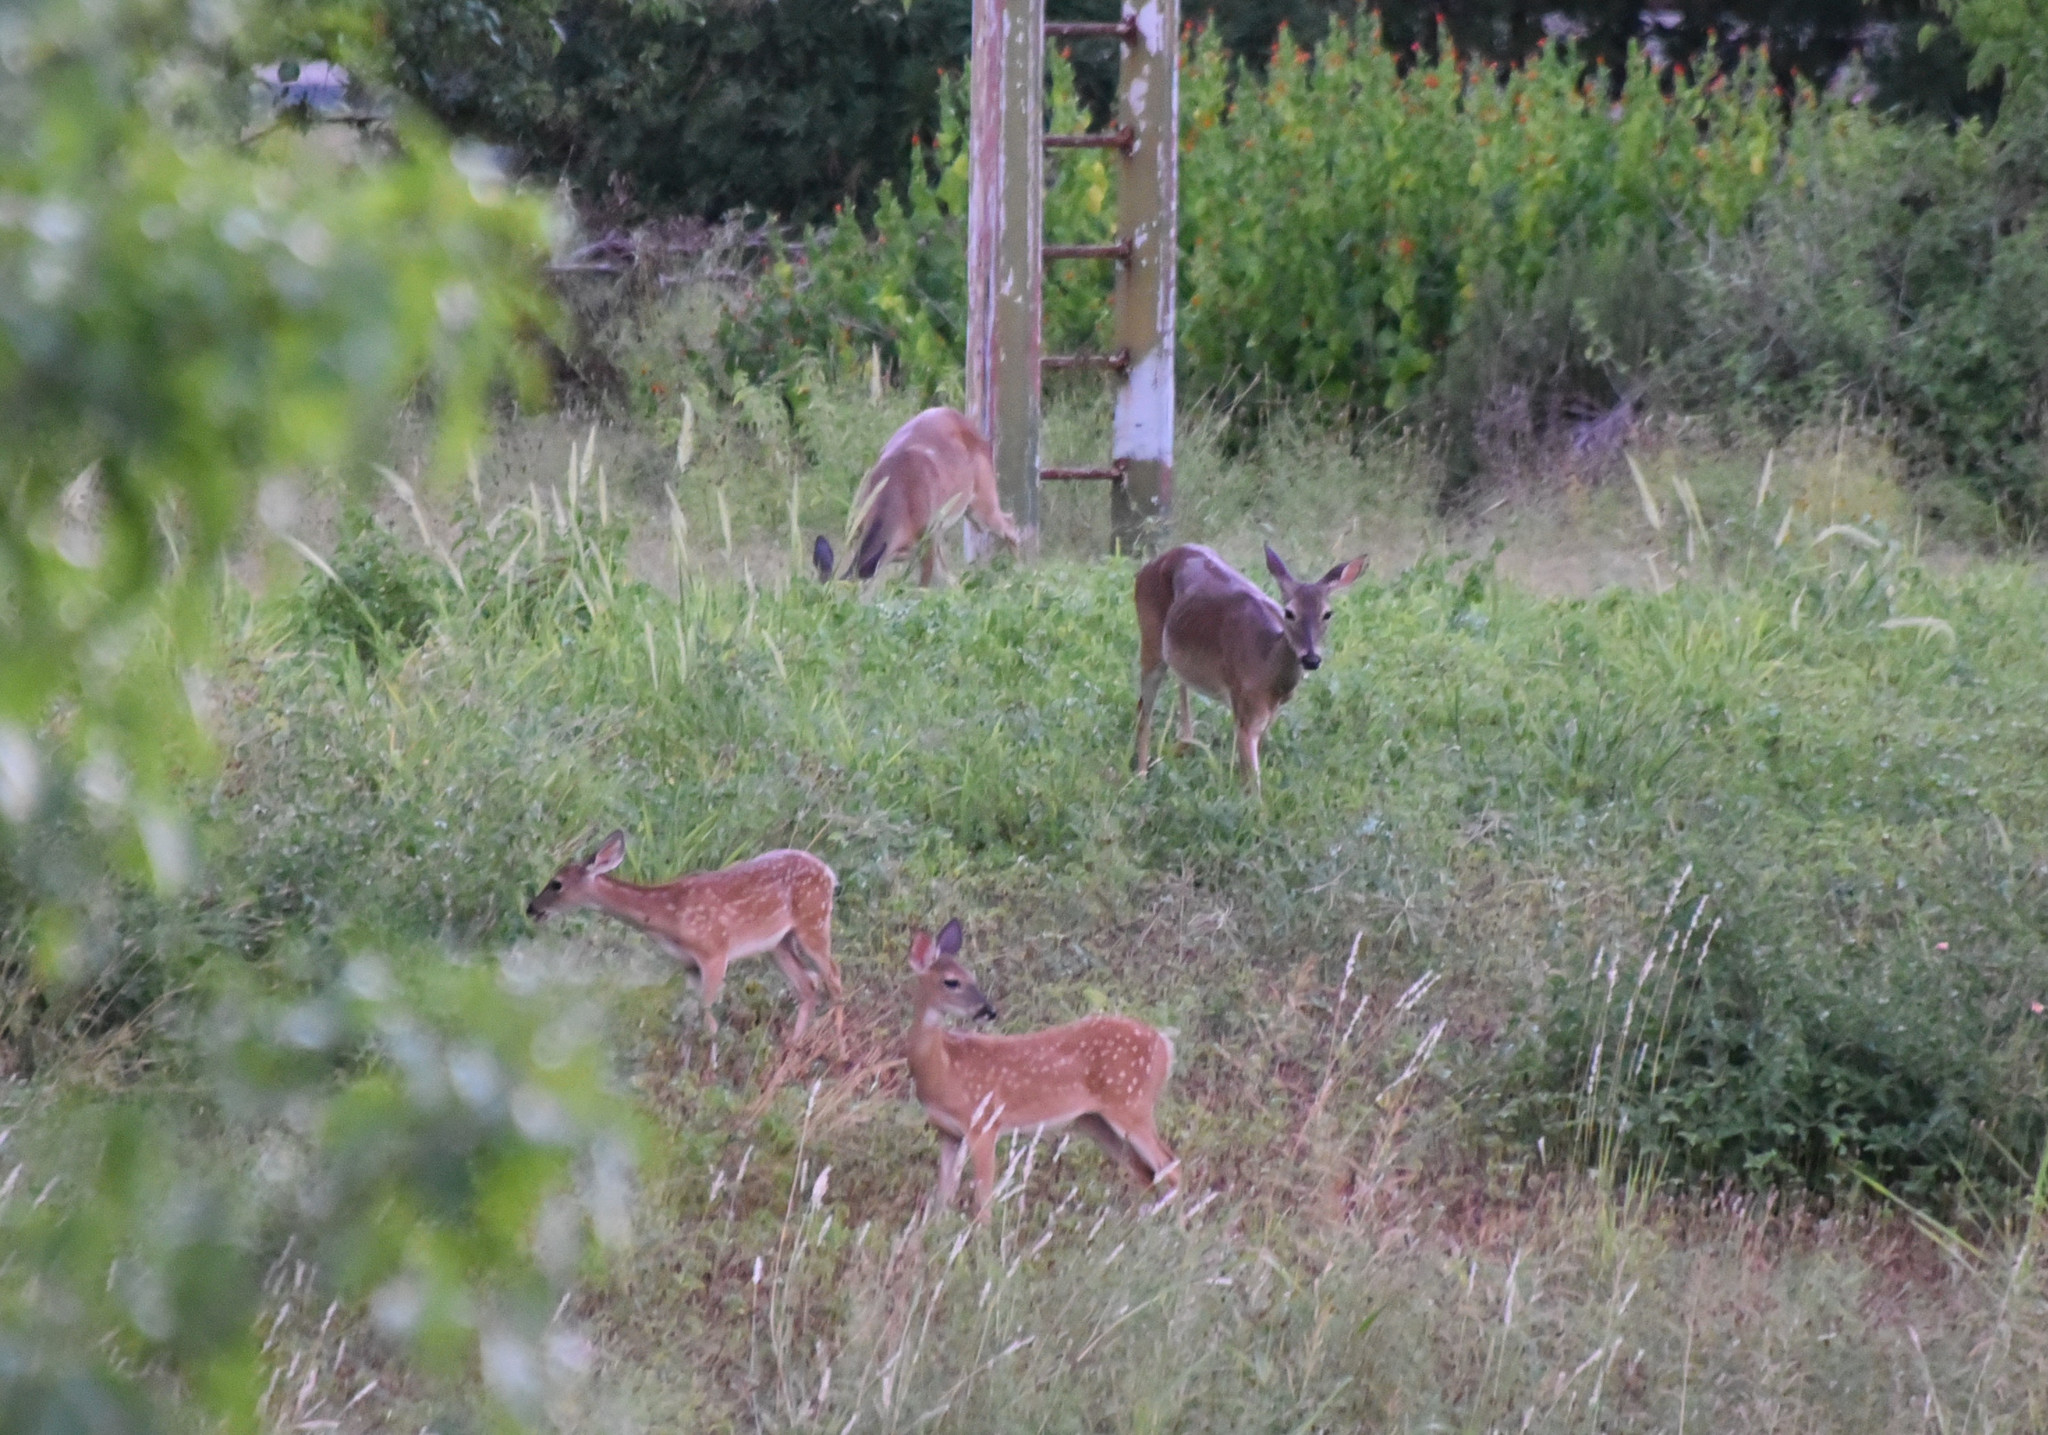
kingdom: Animalia
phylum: Chordata
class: Mammalia
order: Artiodactyla
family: Cervidae
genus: Odocoileus
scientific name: Odocoileus virginianus
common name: White-tailed deer
